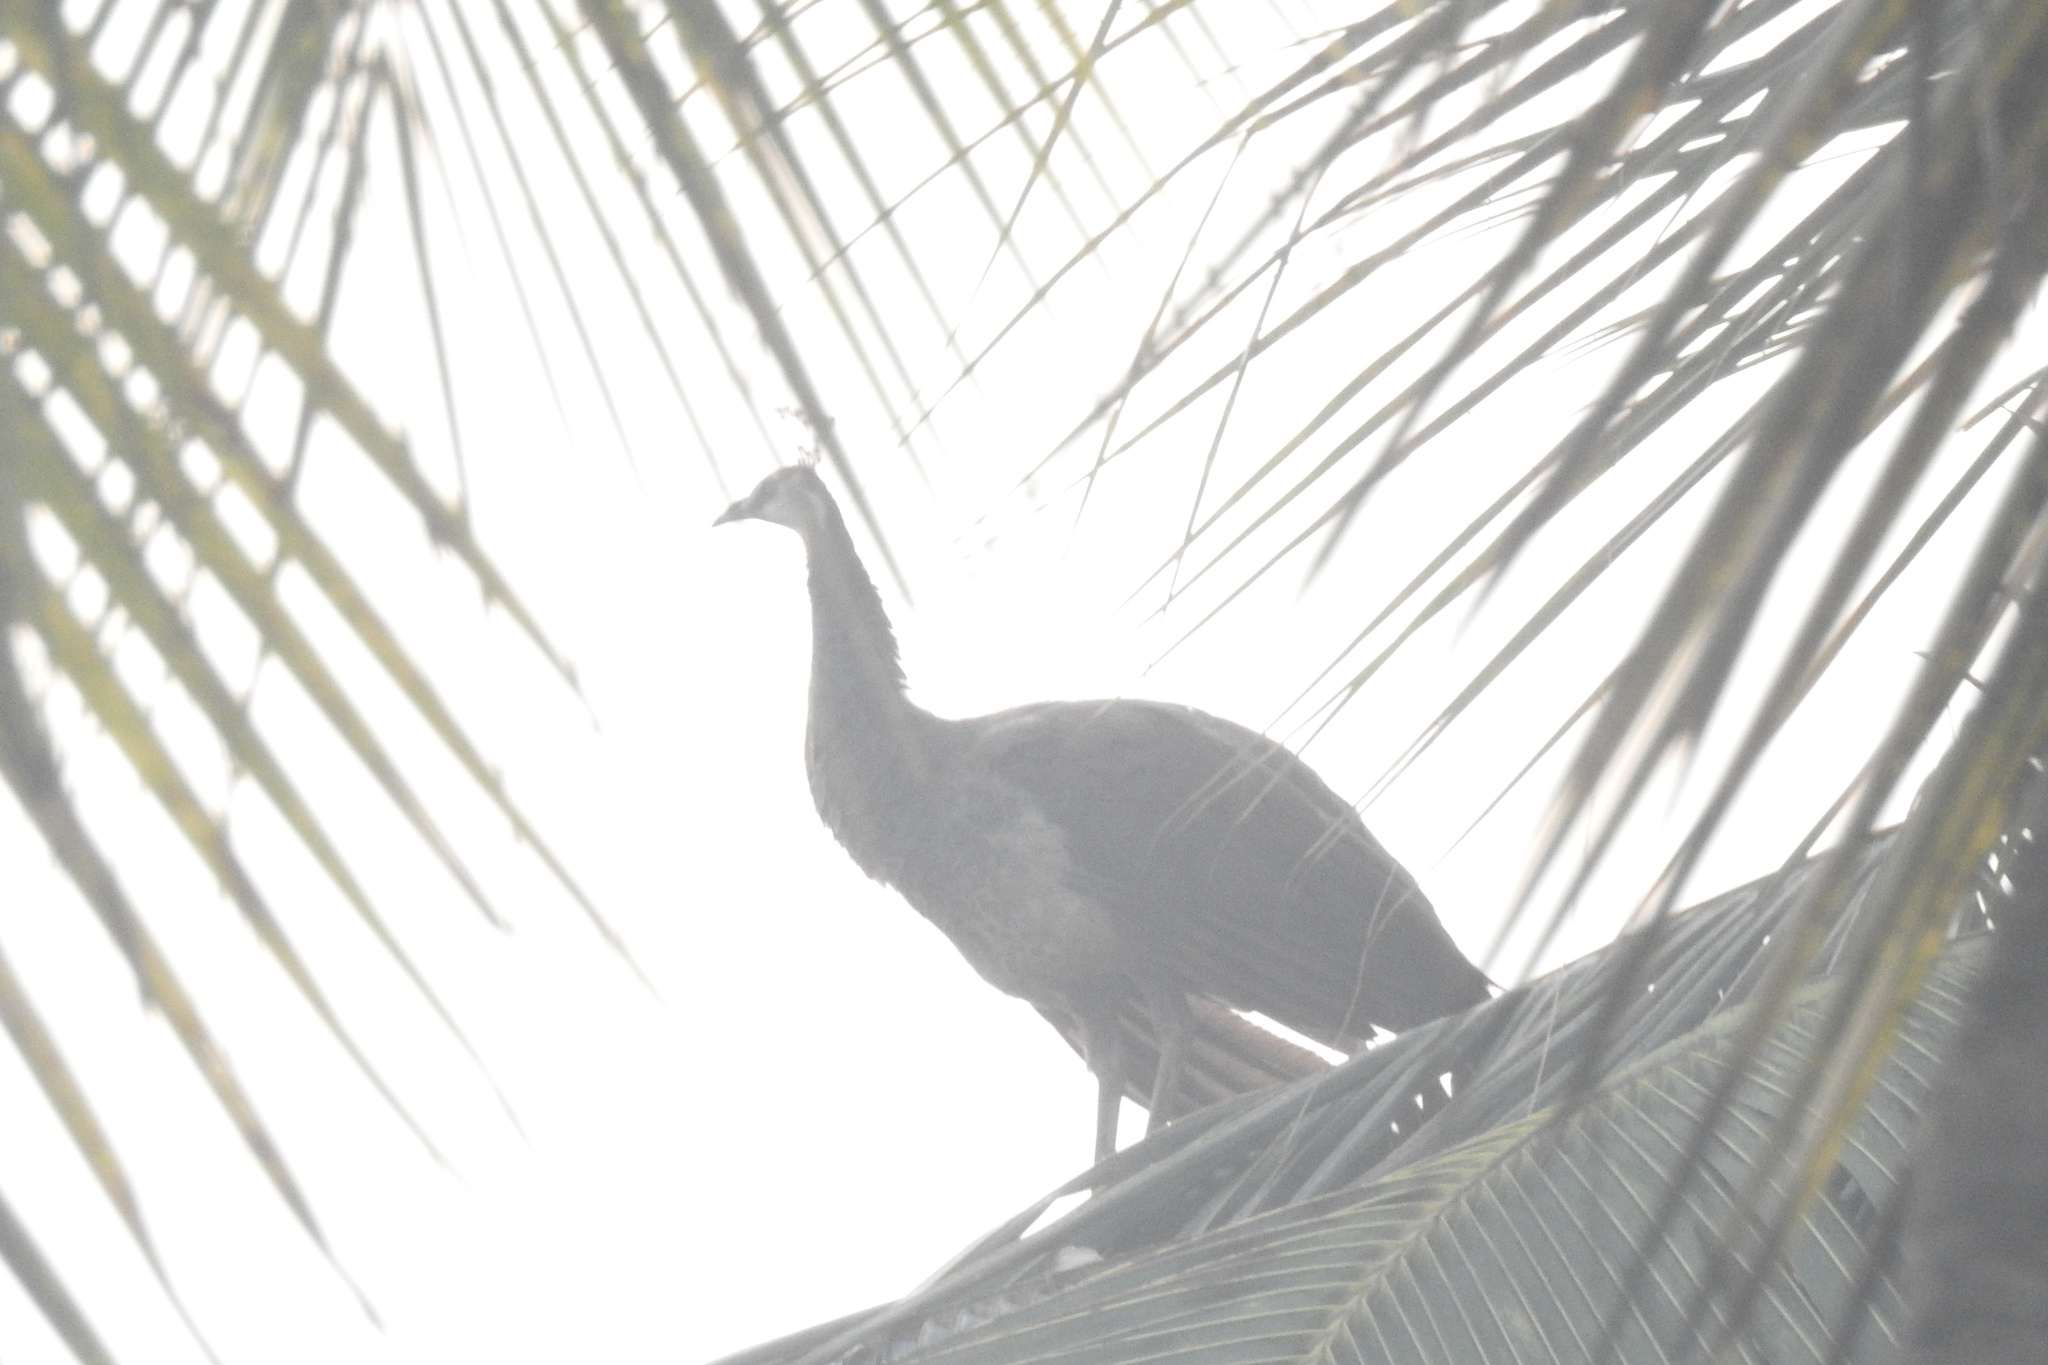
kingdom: Animalia
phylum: Chordata
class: Aves
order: Galliformes
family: Phasianidae
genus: Pavo
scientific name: Pavo cristatus
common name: Indian peafowl
